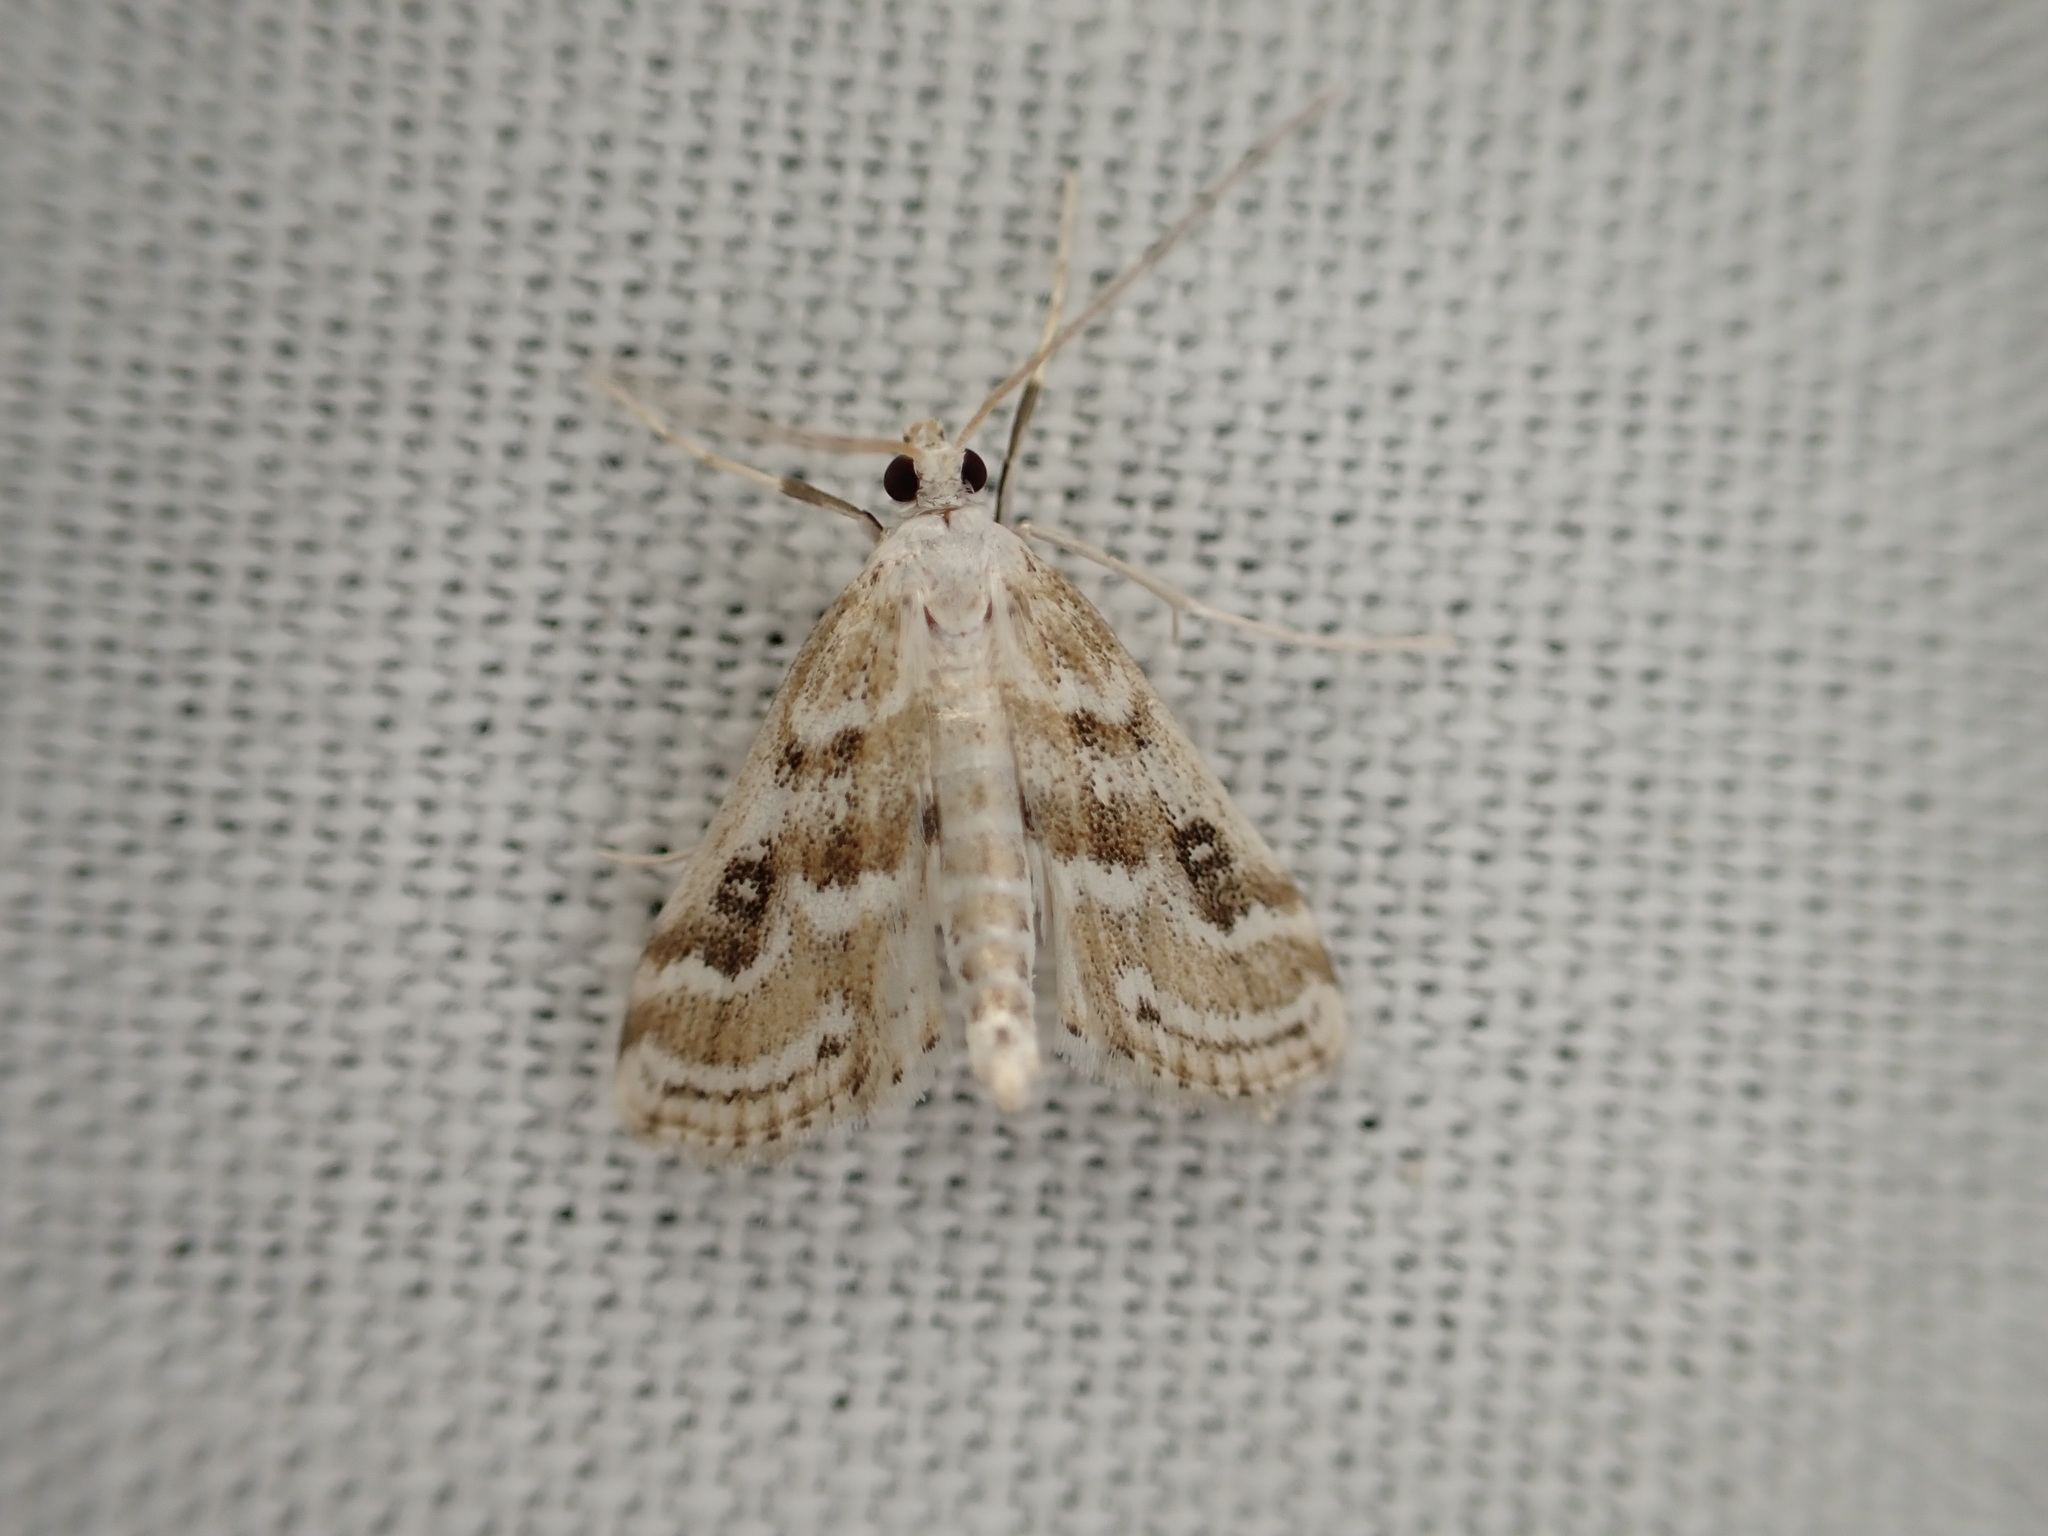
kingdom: Animalia
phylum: Arthropoda
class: Insecta
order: Lepidoptera
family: Crambidae
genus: Parapoynx
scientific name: Parapoynx stratiotata
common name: Ringed china-mark
